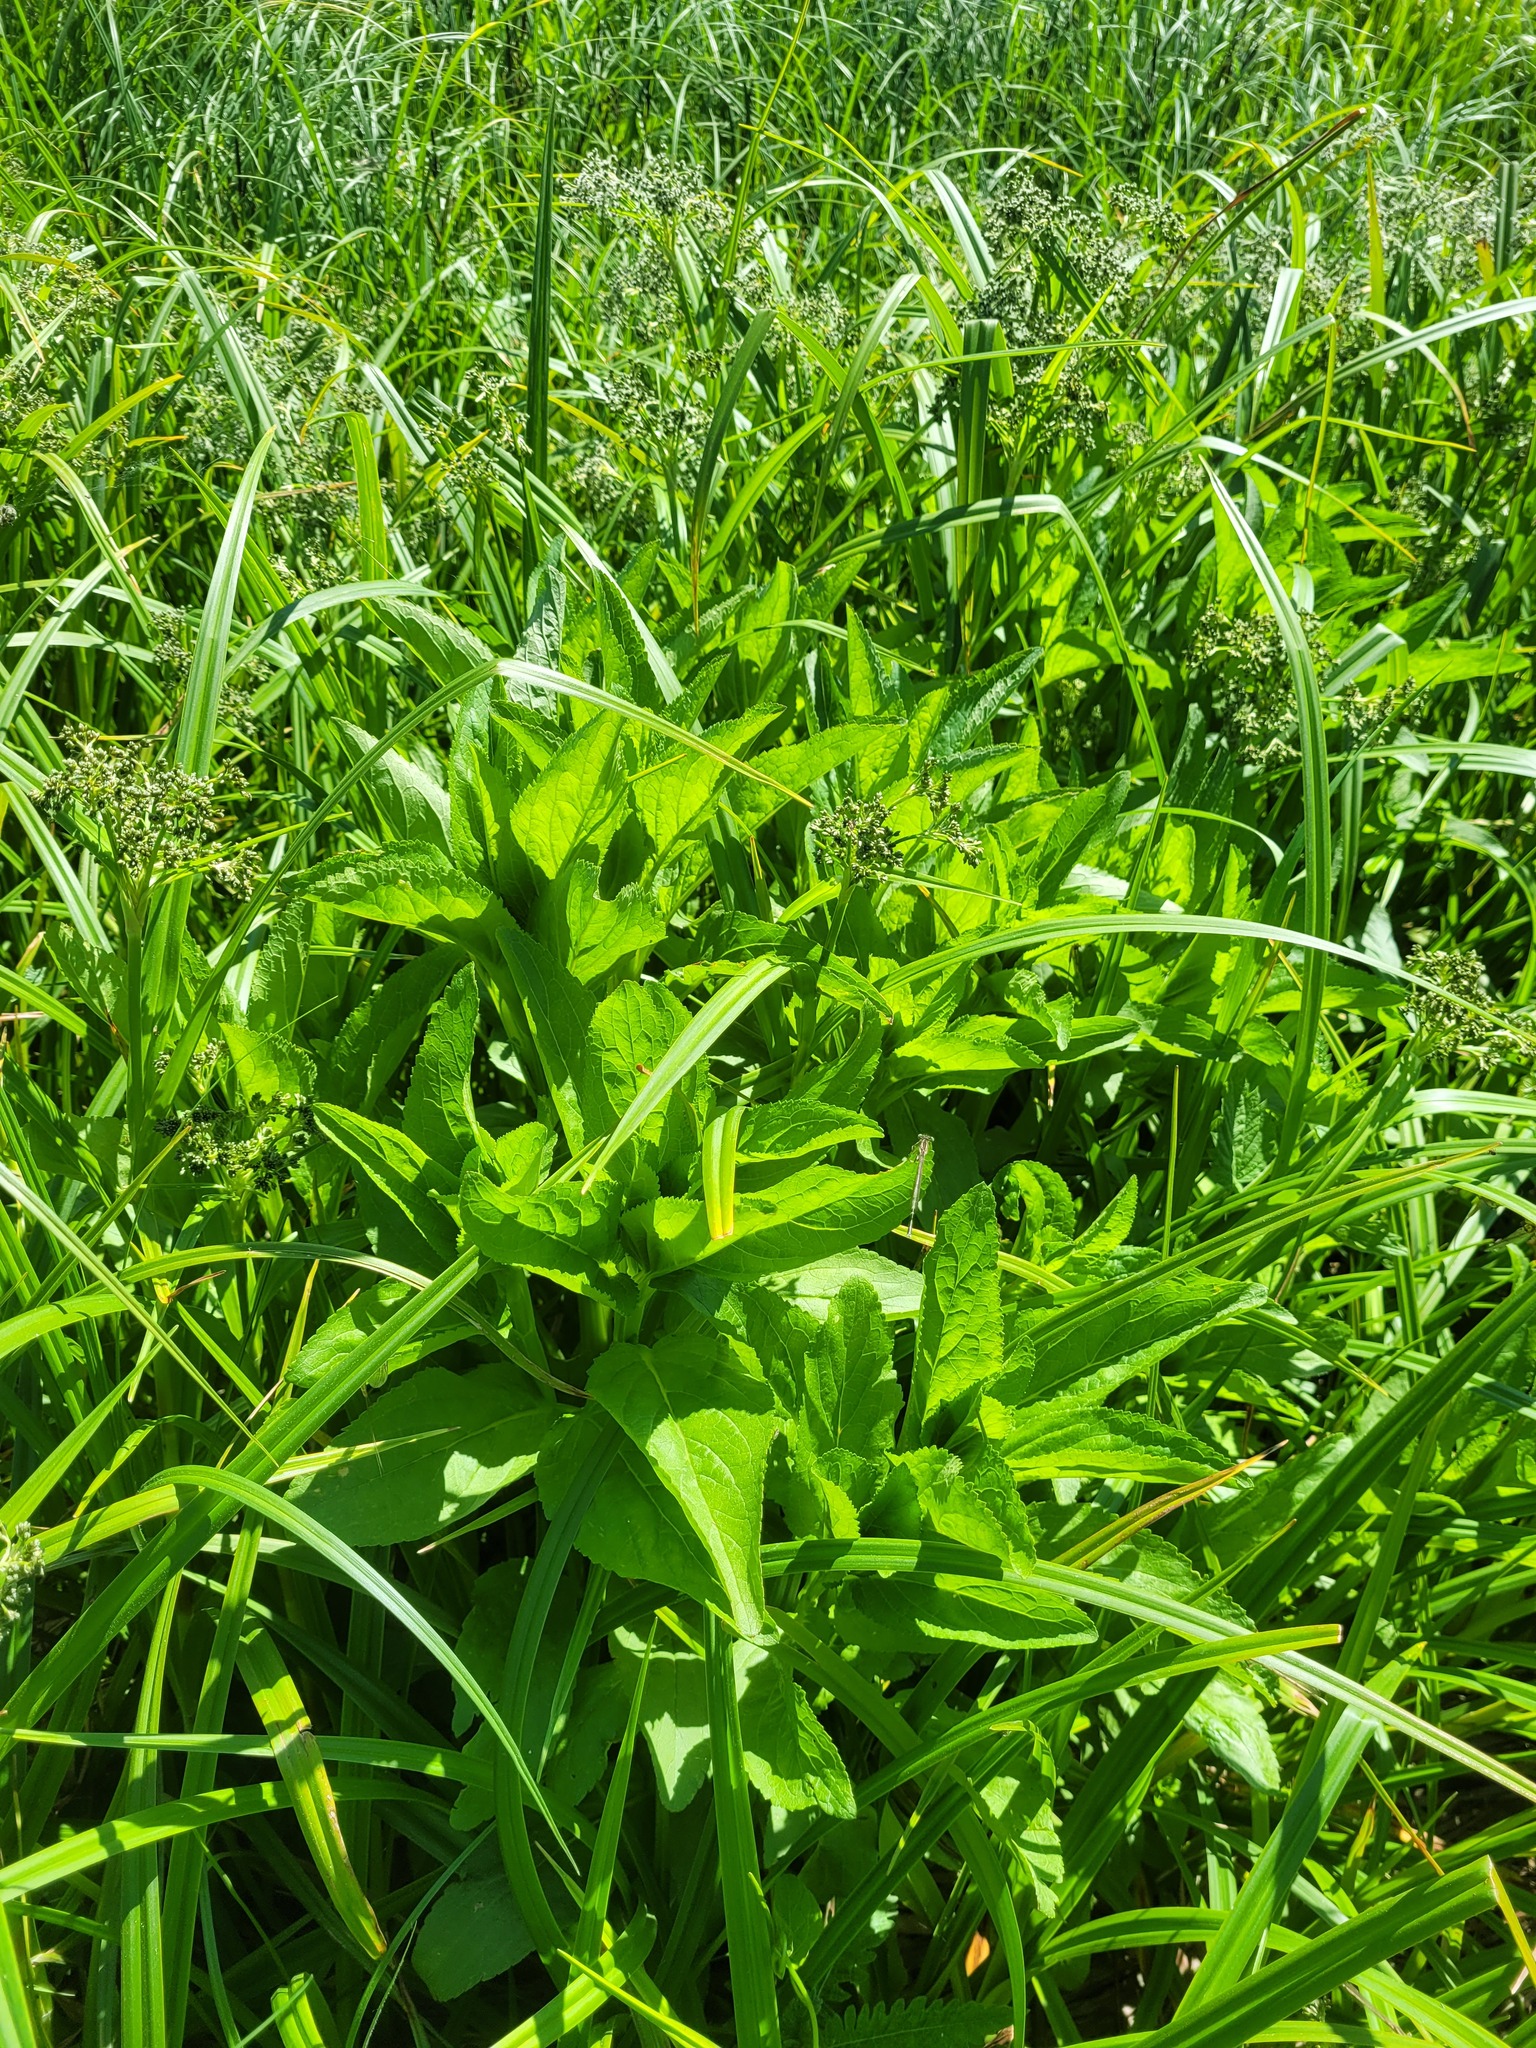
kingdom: Plantae
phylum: Tracheophyta
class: Magnoliopsida
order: Lamiales
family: Scrophulariaceae
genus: Scrophularia
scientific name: Scrophularia umbrosa
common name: Green figwort
